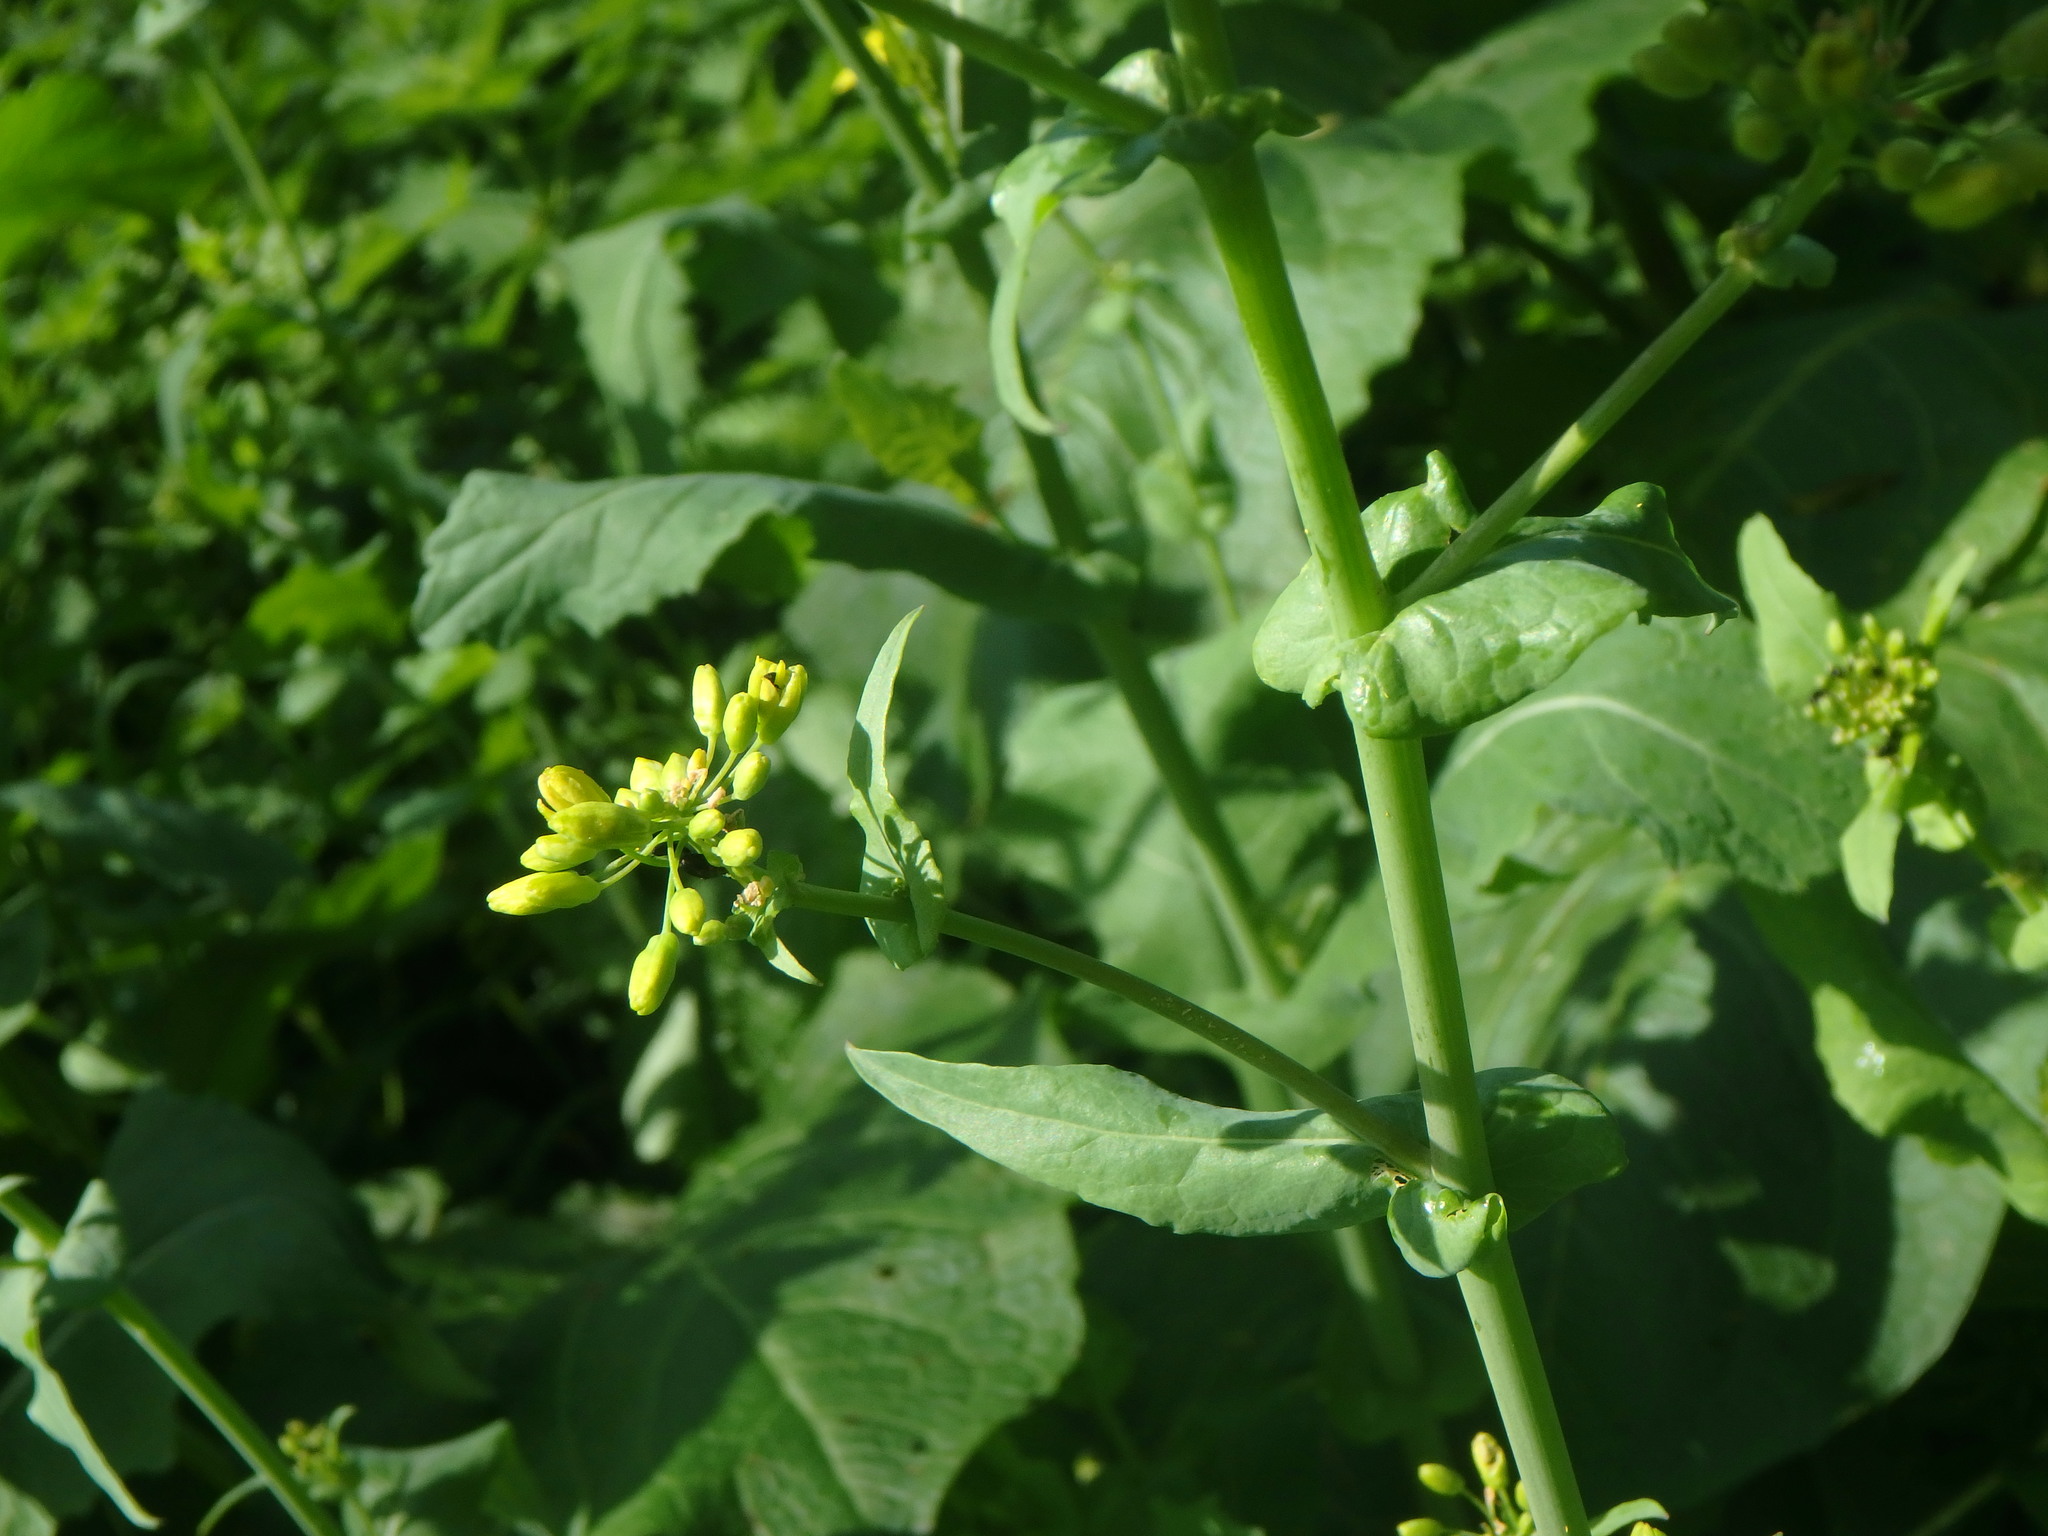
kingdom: Plantae
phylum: Tracheophyta
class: Magnoliopsida
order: Brassicales
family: Brassicaceae
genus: Brassica
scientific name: Brassica rapa
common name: Field mustard
